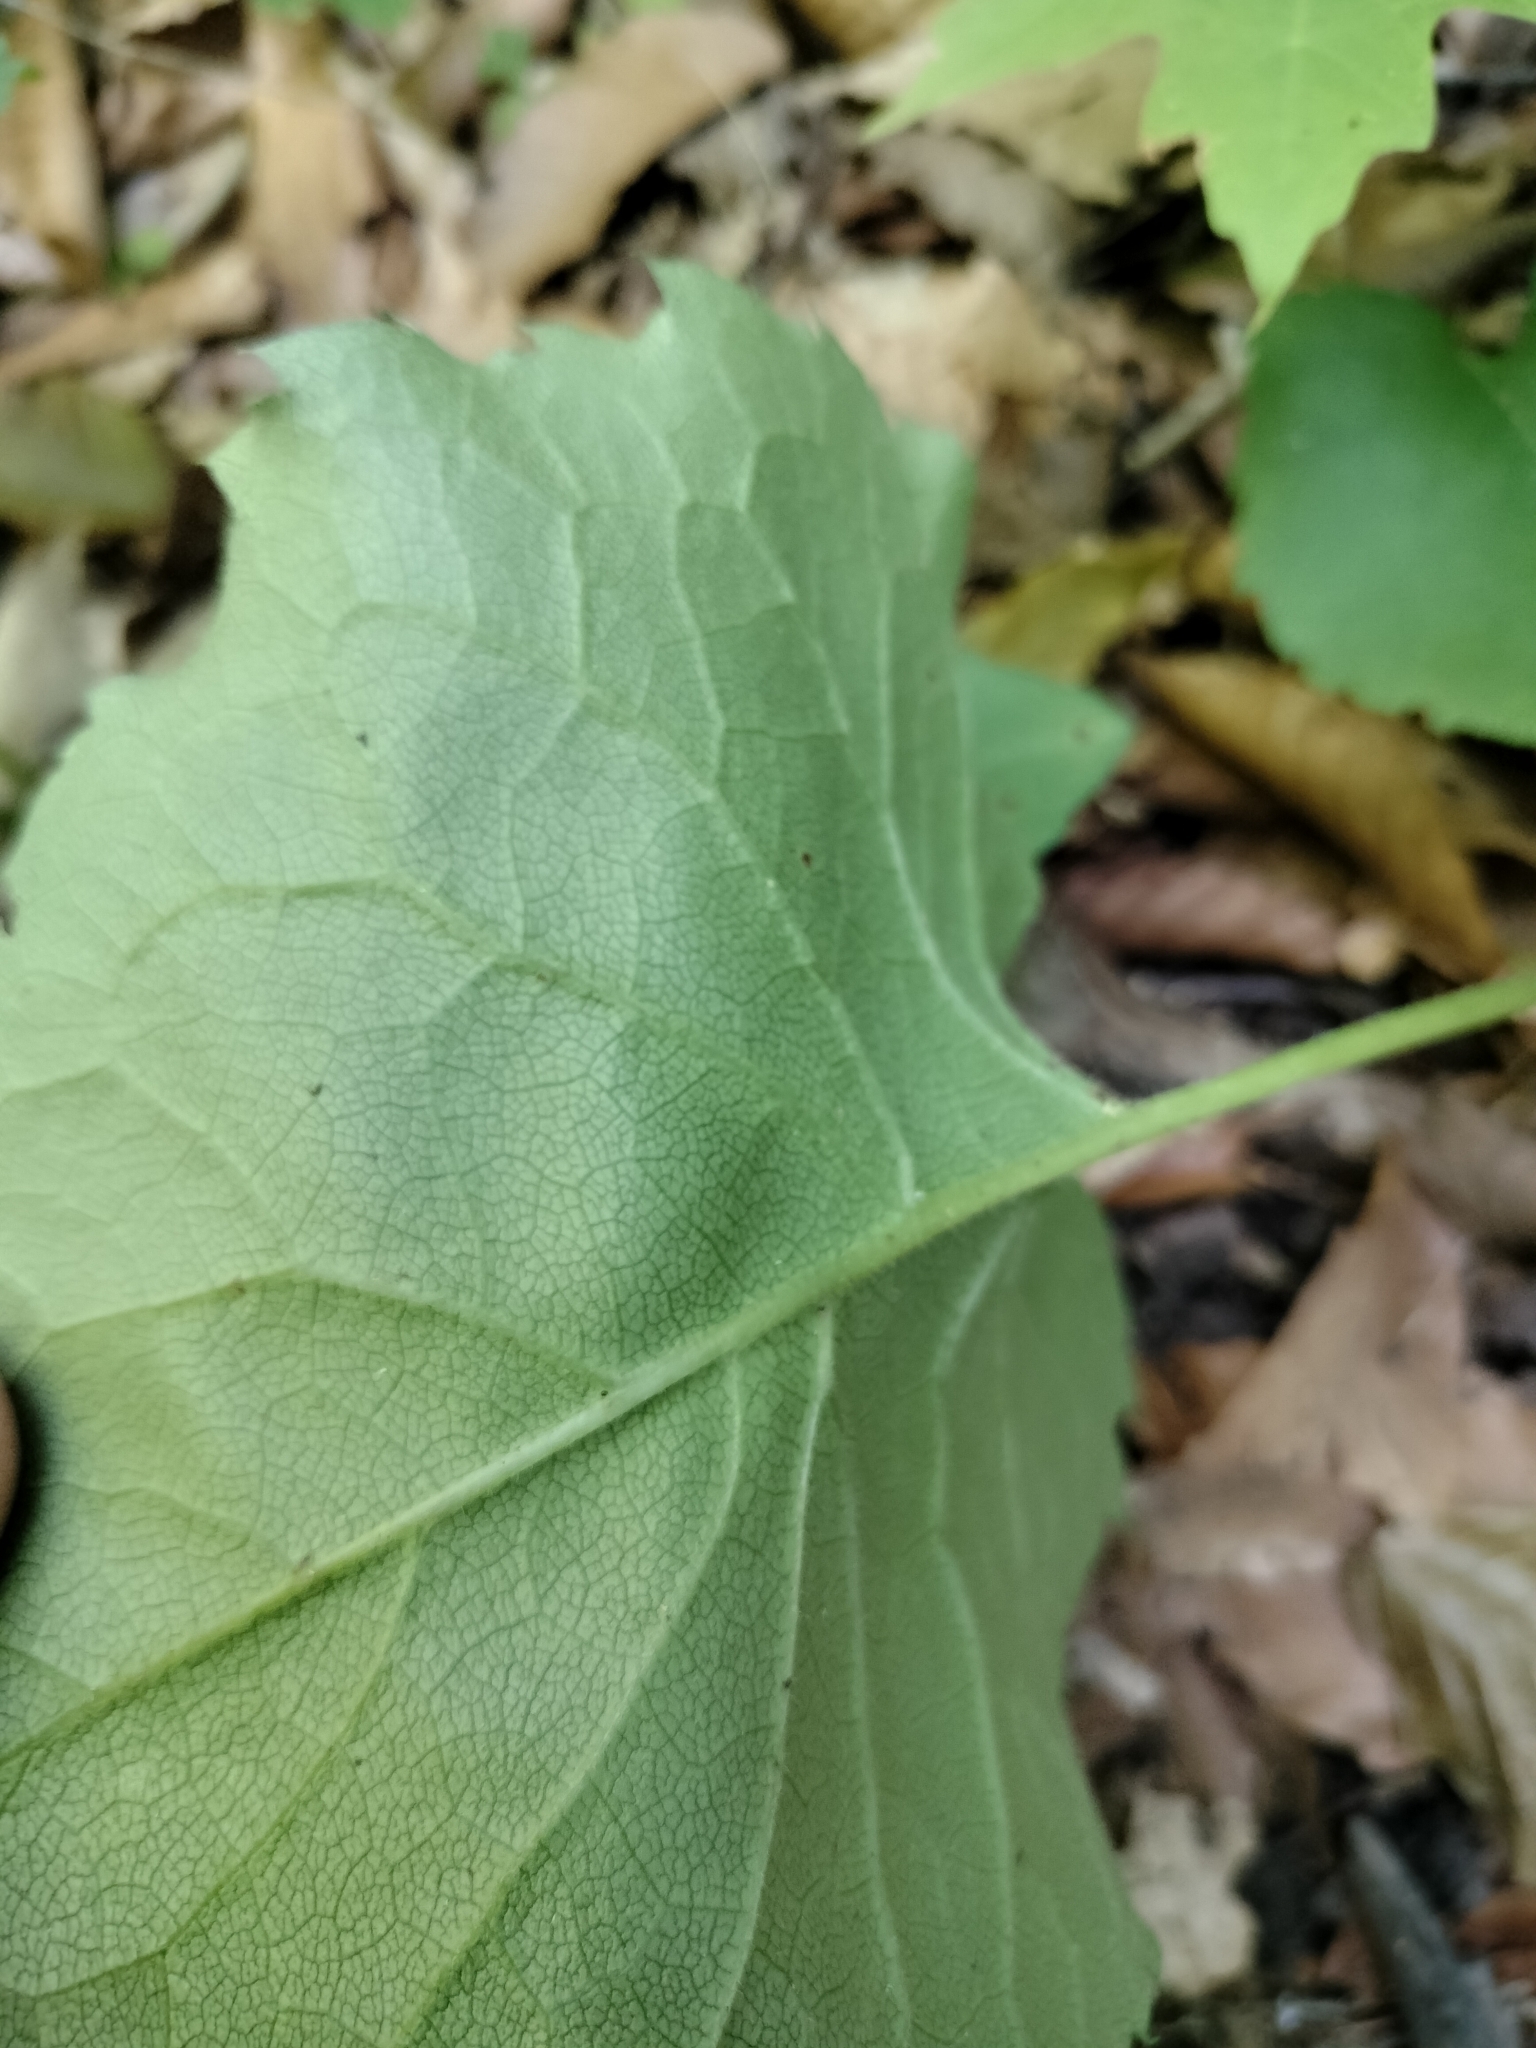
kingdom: Plantae
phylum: Tracheophyta
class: Magnoliopsida
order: Asterales
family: Asteraceae
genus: Eurybia
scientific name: Eurybia macrophylla
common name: Big-leaved aster
